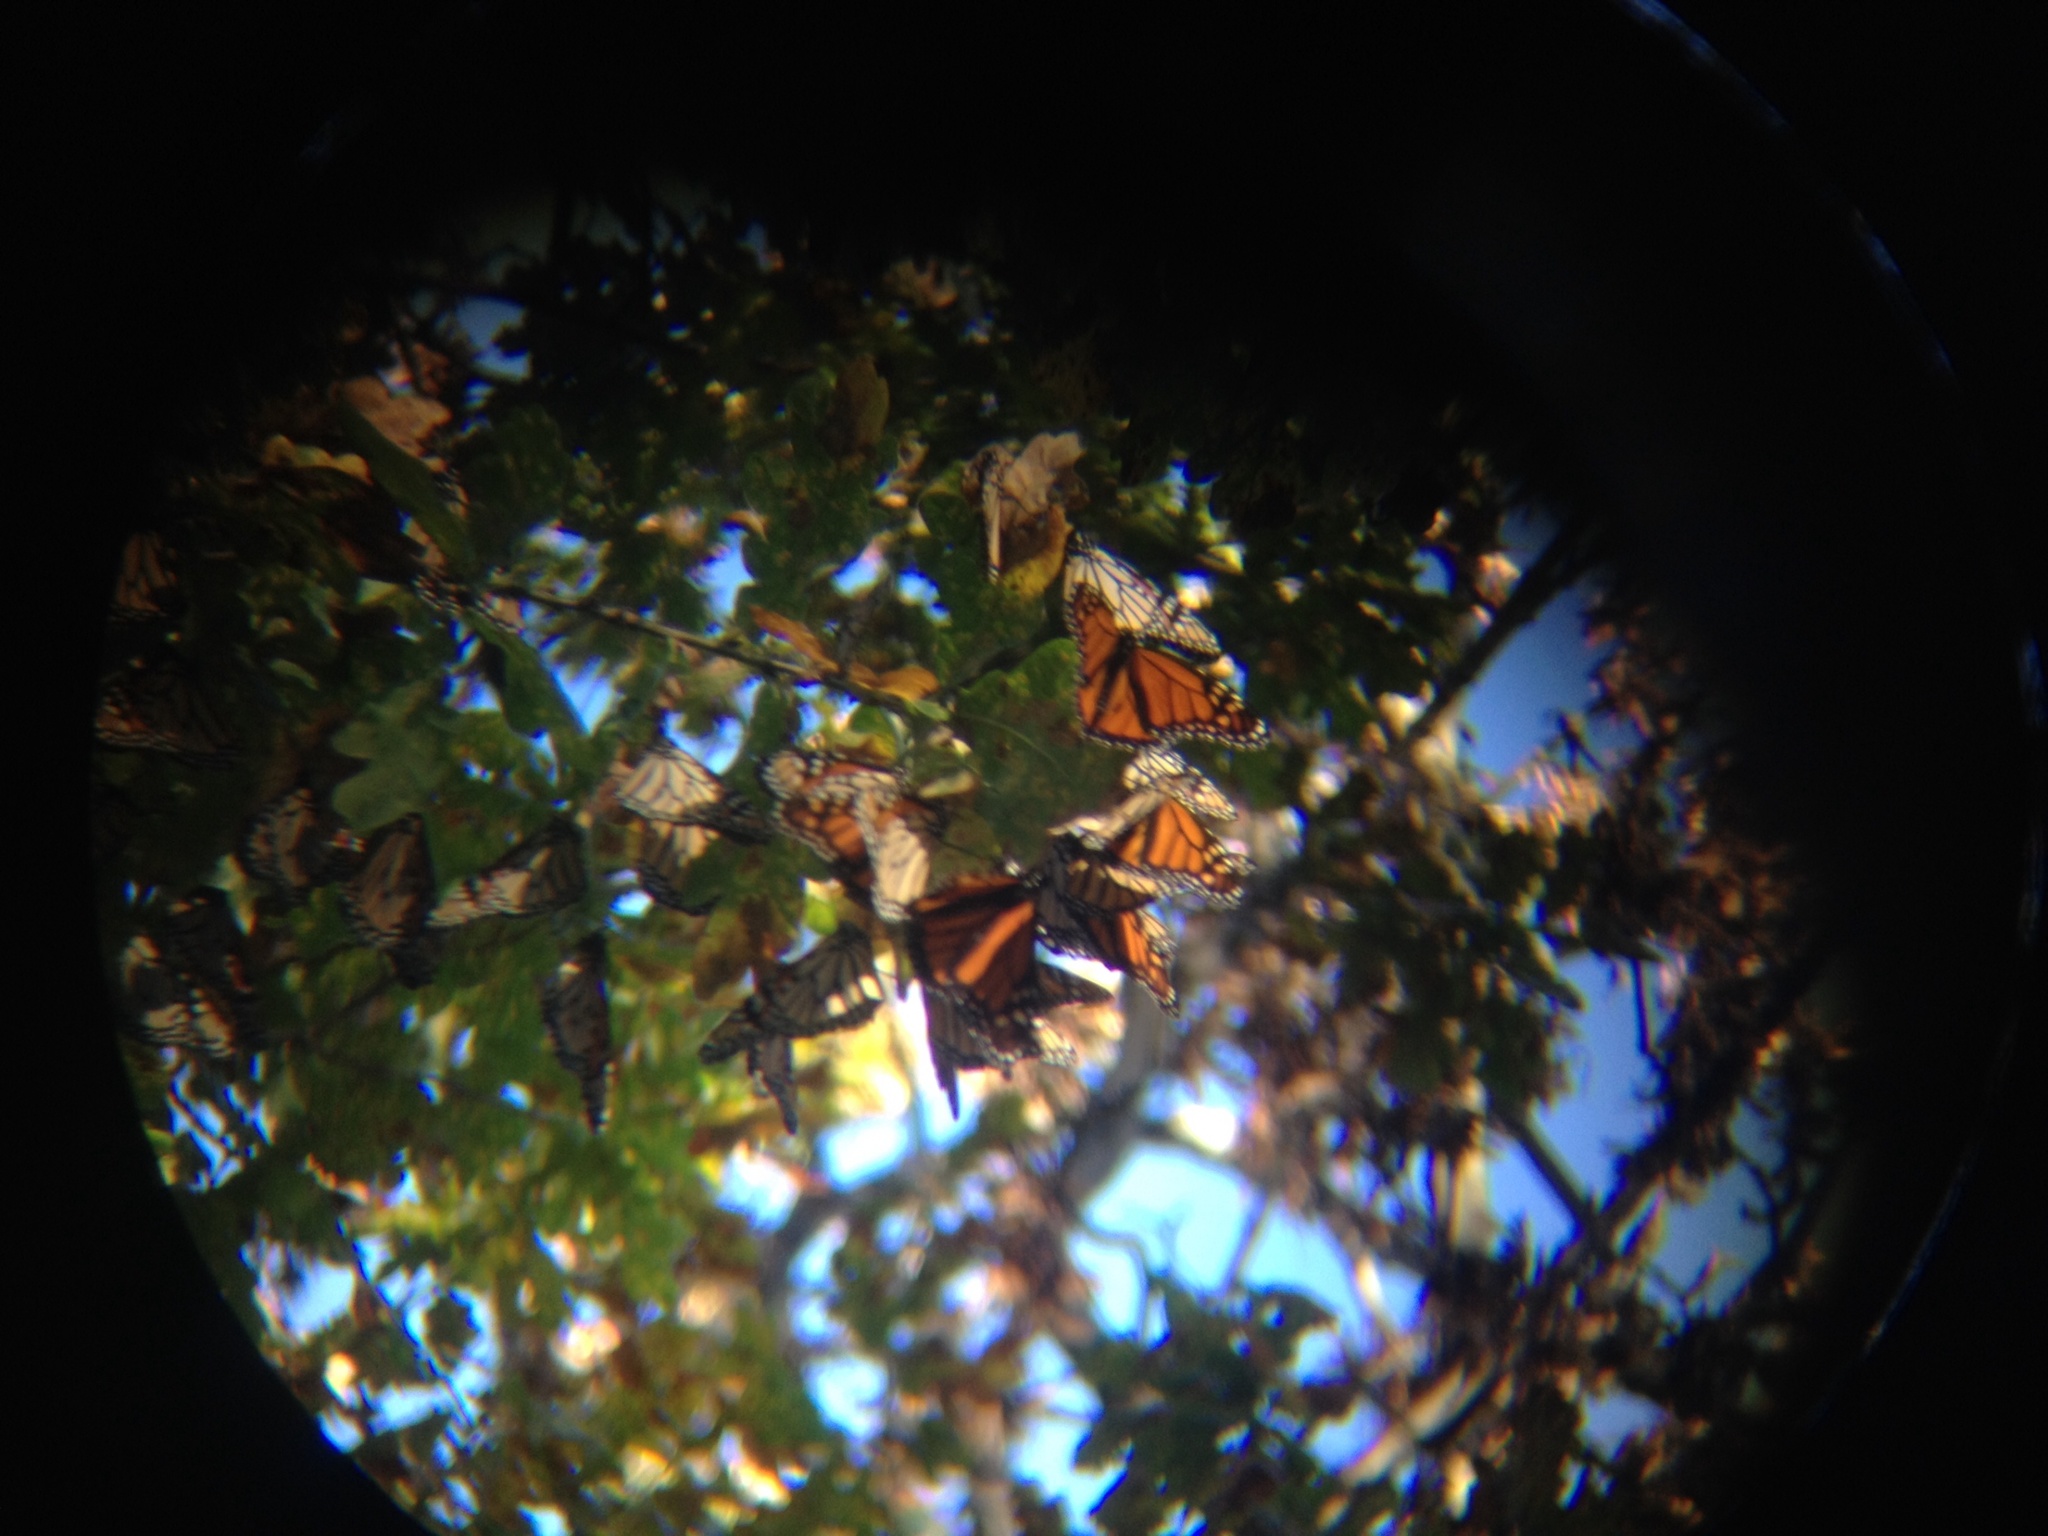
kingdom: Animalia
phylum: Arthropoda
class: Insecta
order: Lepidoptera
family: Nymphalidae
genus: Danaus
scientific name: Danaus plexippus
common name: Monarch
